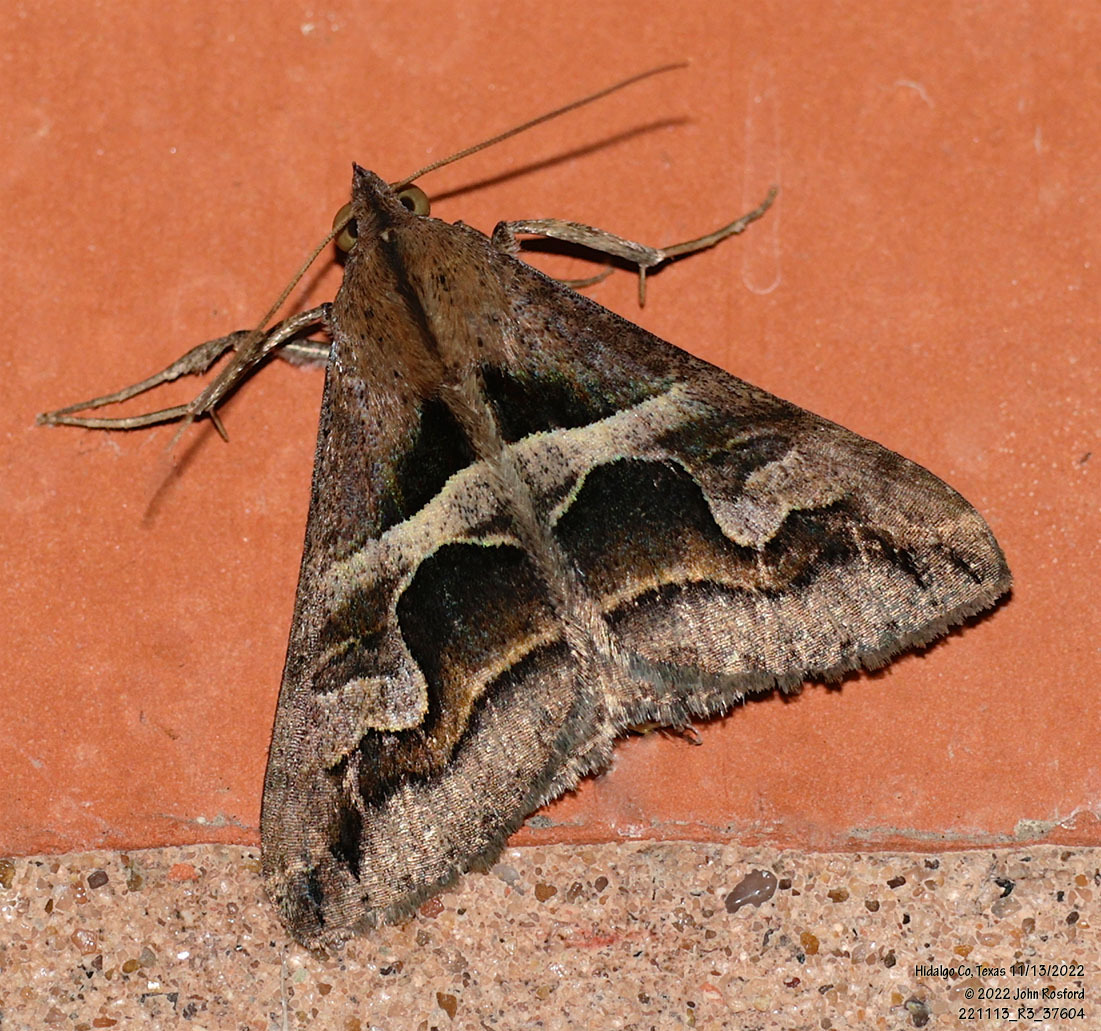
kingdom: Animalia
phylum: Arthropoda
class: Insecta
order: Lepidoptera
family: Erebidae
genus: Melipotis
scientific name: Melipotis cellaris
